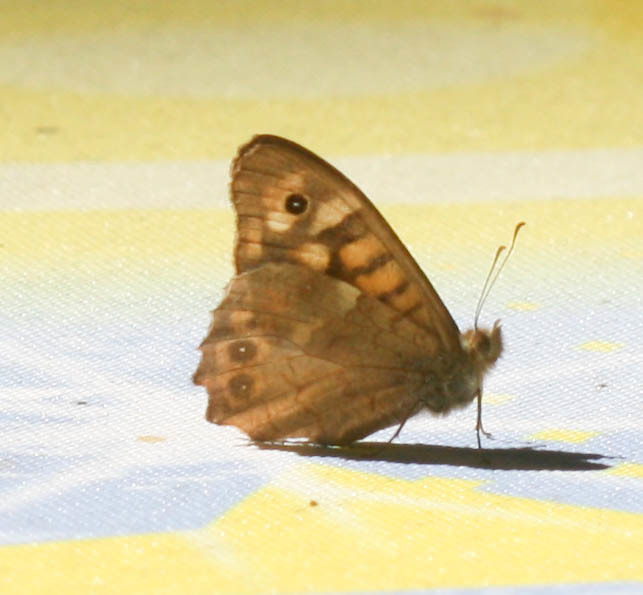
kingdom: Animalia
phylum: Arthropoda
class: Insecta
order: Lepidoptera
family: Nymphalidae
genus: Pararge
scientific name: Pararge aegeria
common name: Speckled wood
